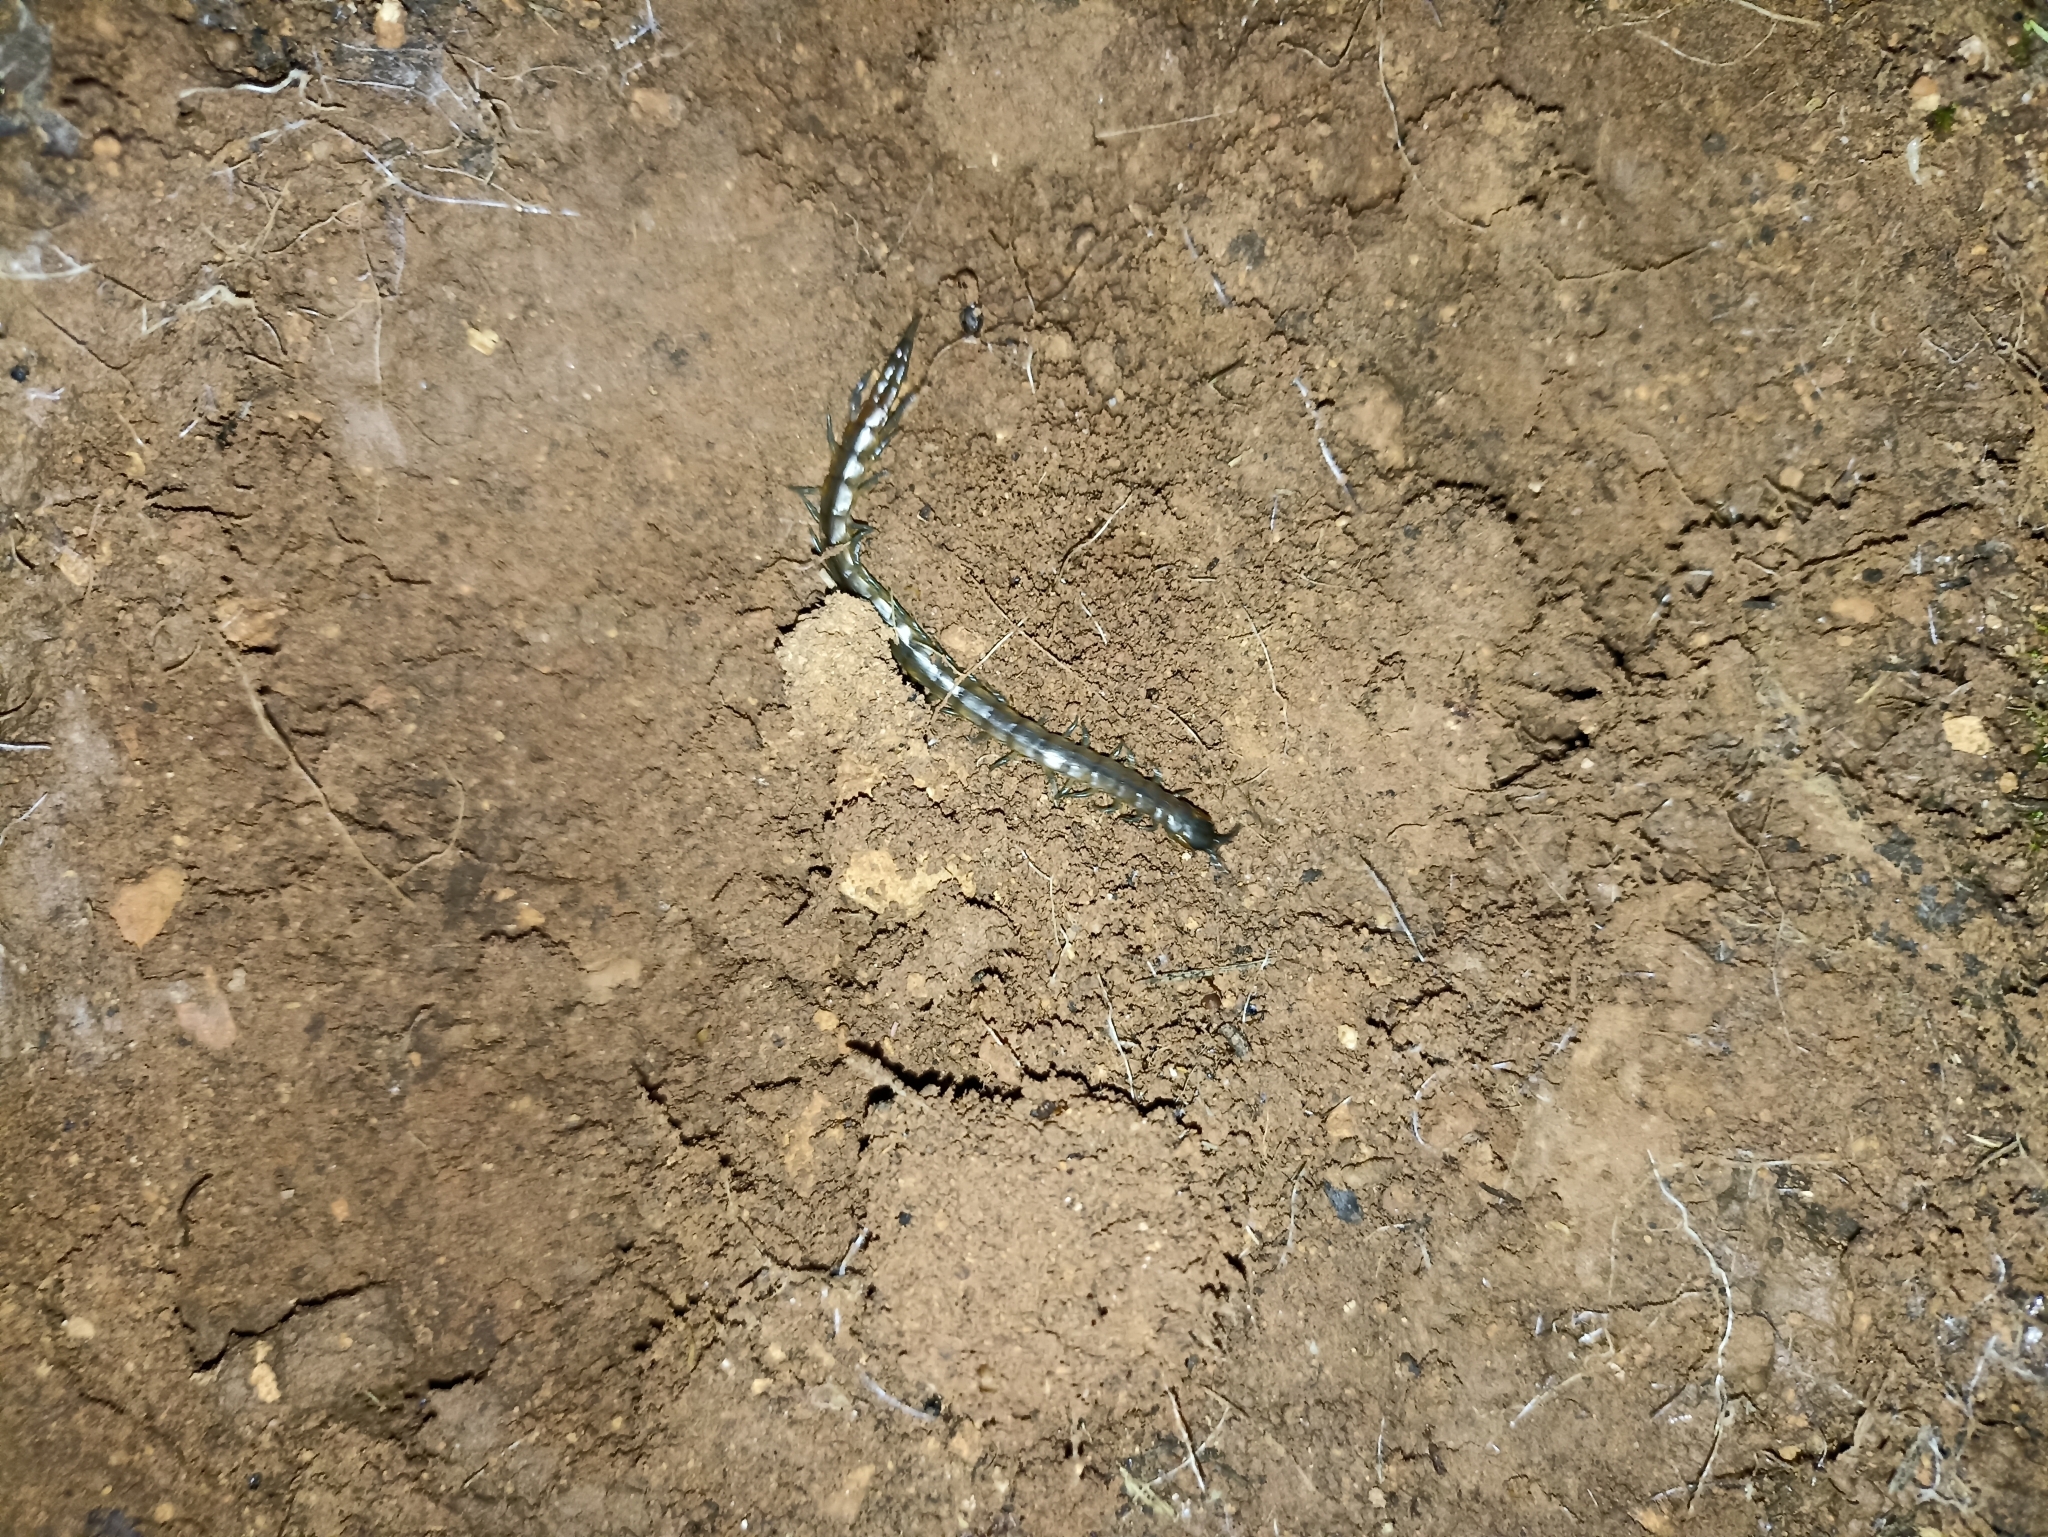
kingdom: Animalia
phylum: Arthropoda
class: Chilopoda
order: Scolopendromorpha
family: Scolopendridae
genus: Scolopendra
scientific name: Scolopendra oraniensis
